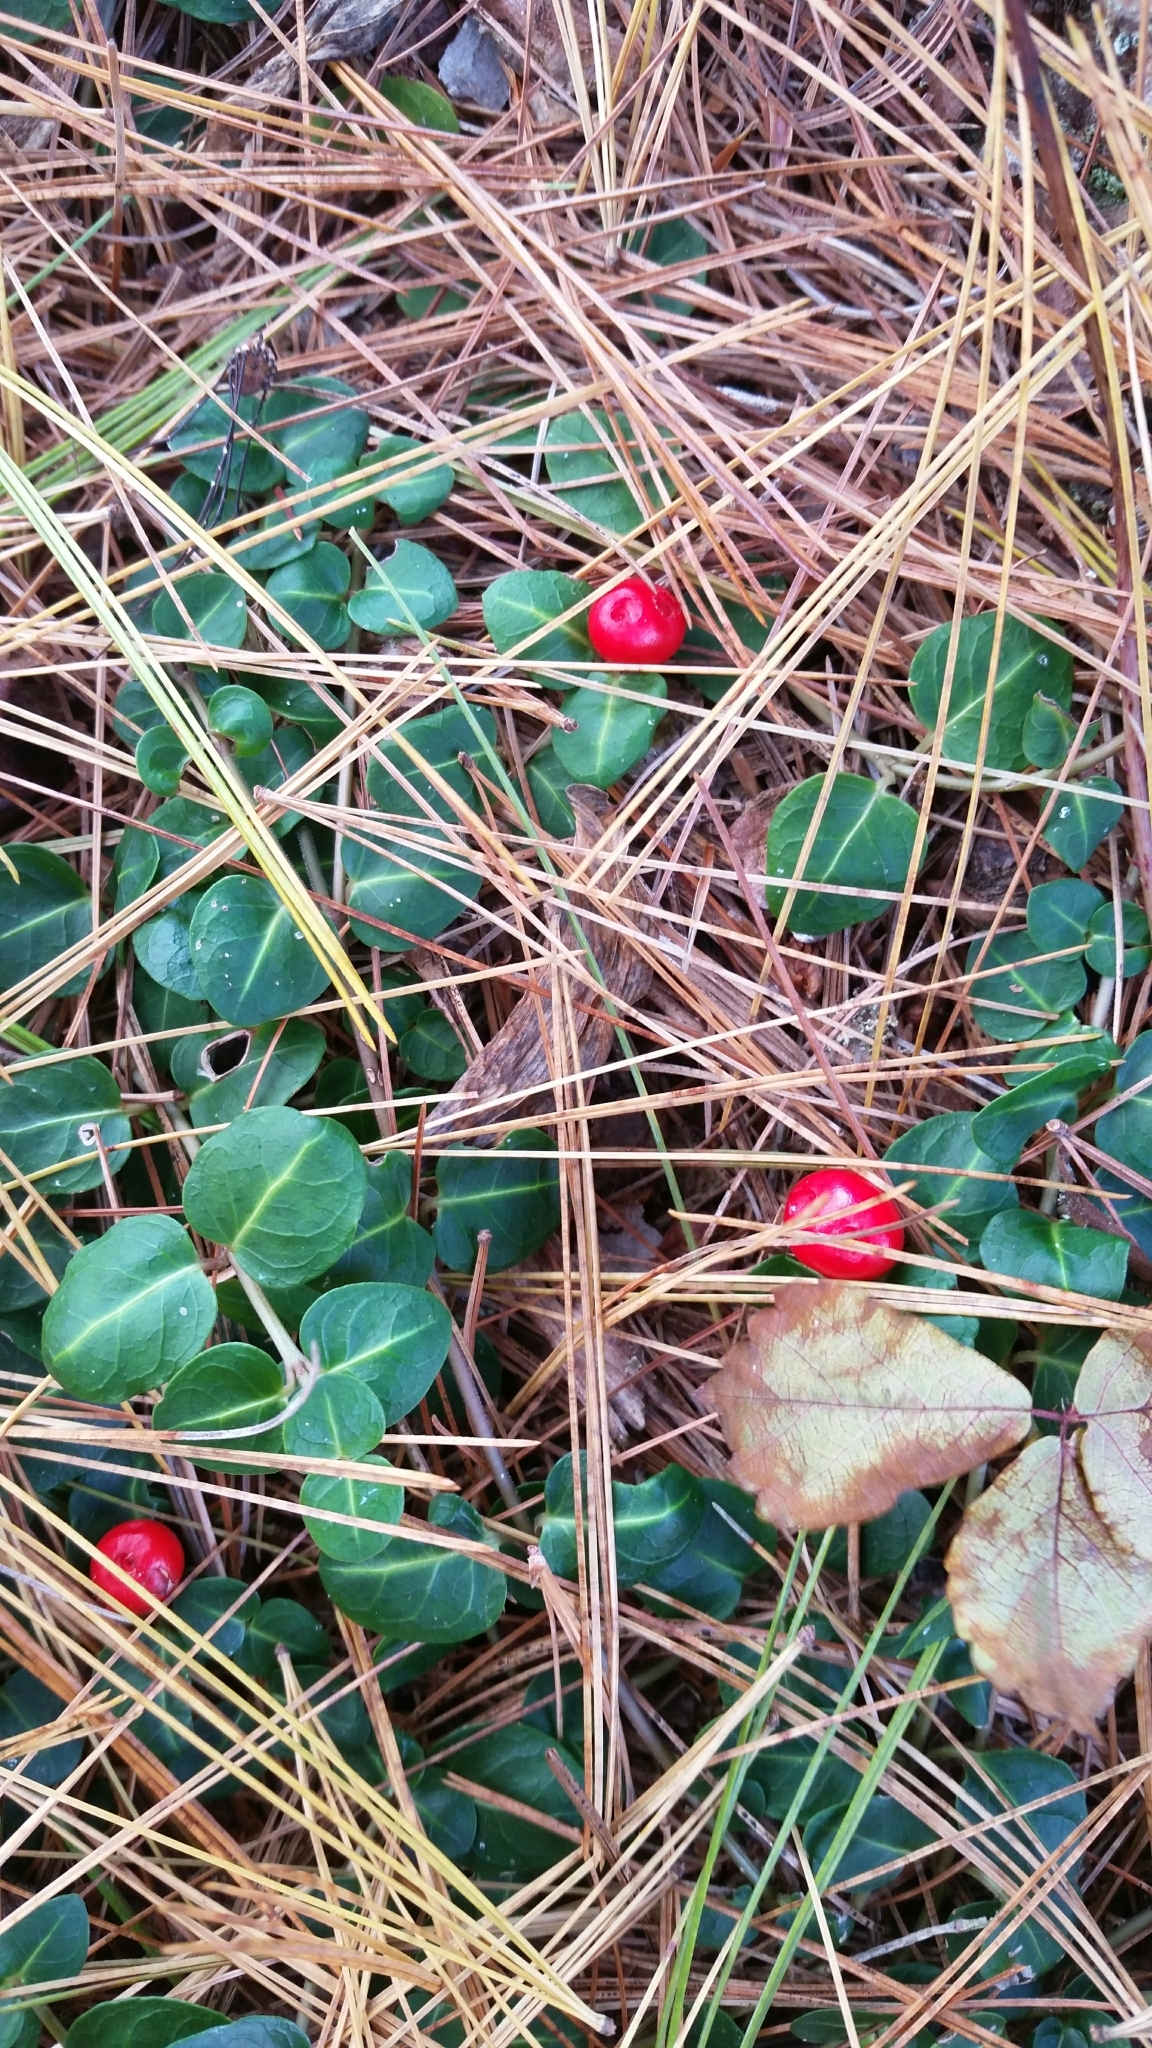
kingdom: Plantae
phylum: Tracheophyta
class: Magnoliopsida
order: Gentianales
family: Rubiaceae
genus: Mitchella
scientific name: Mitchella repens
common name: Partridge-berry
